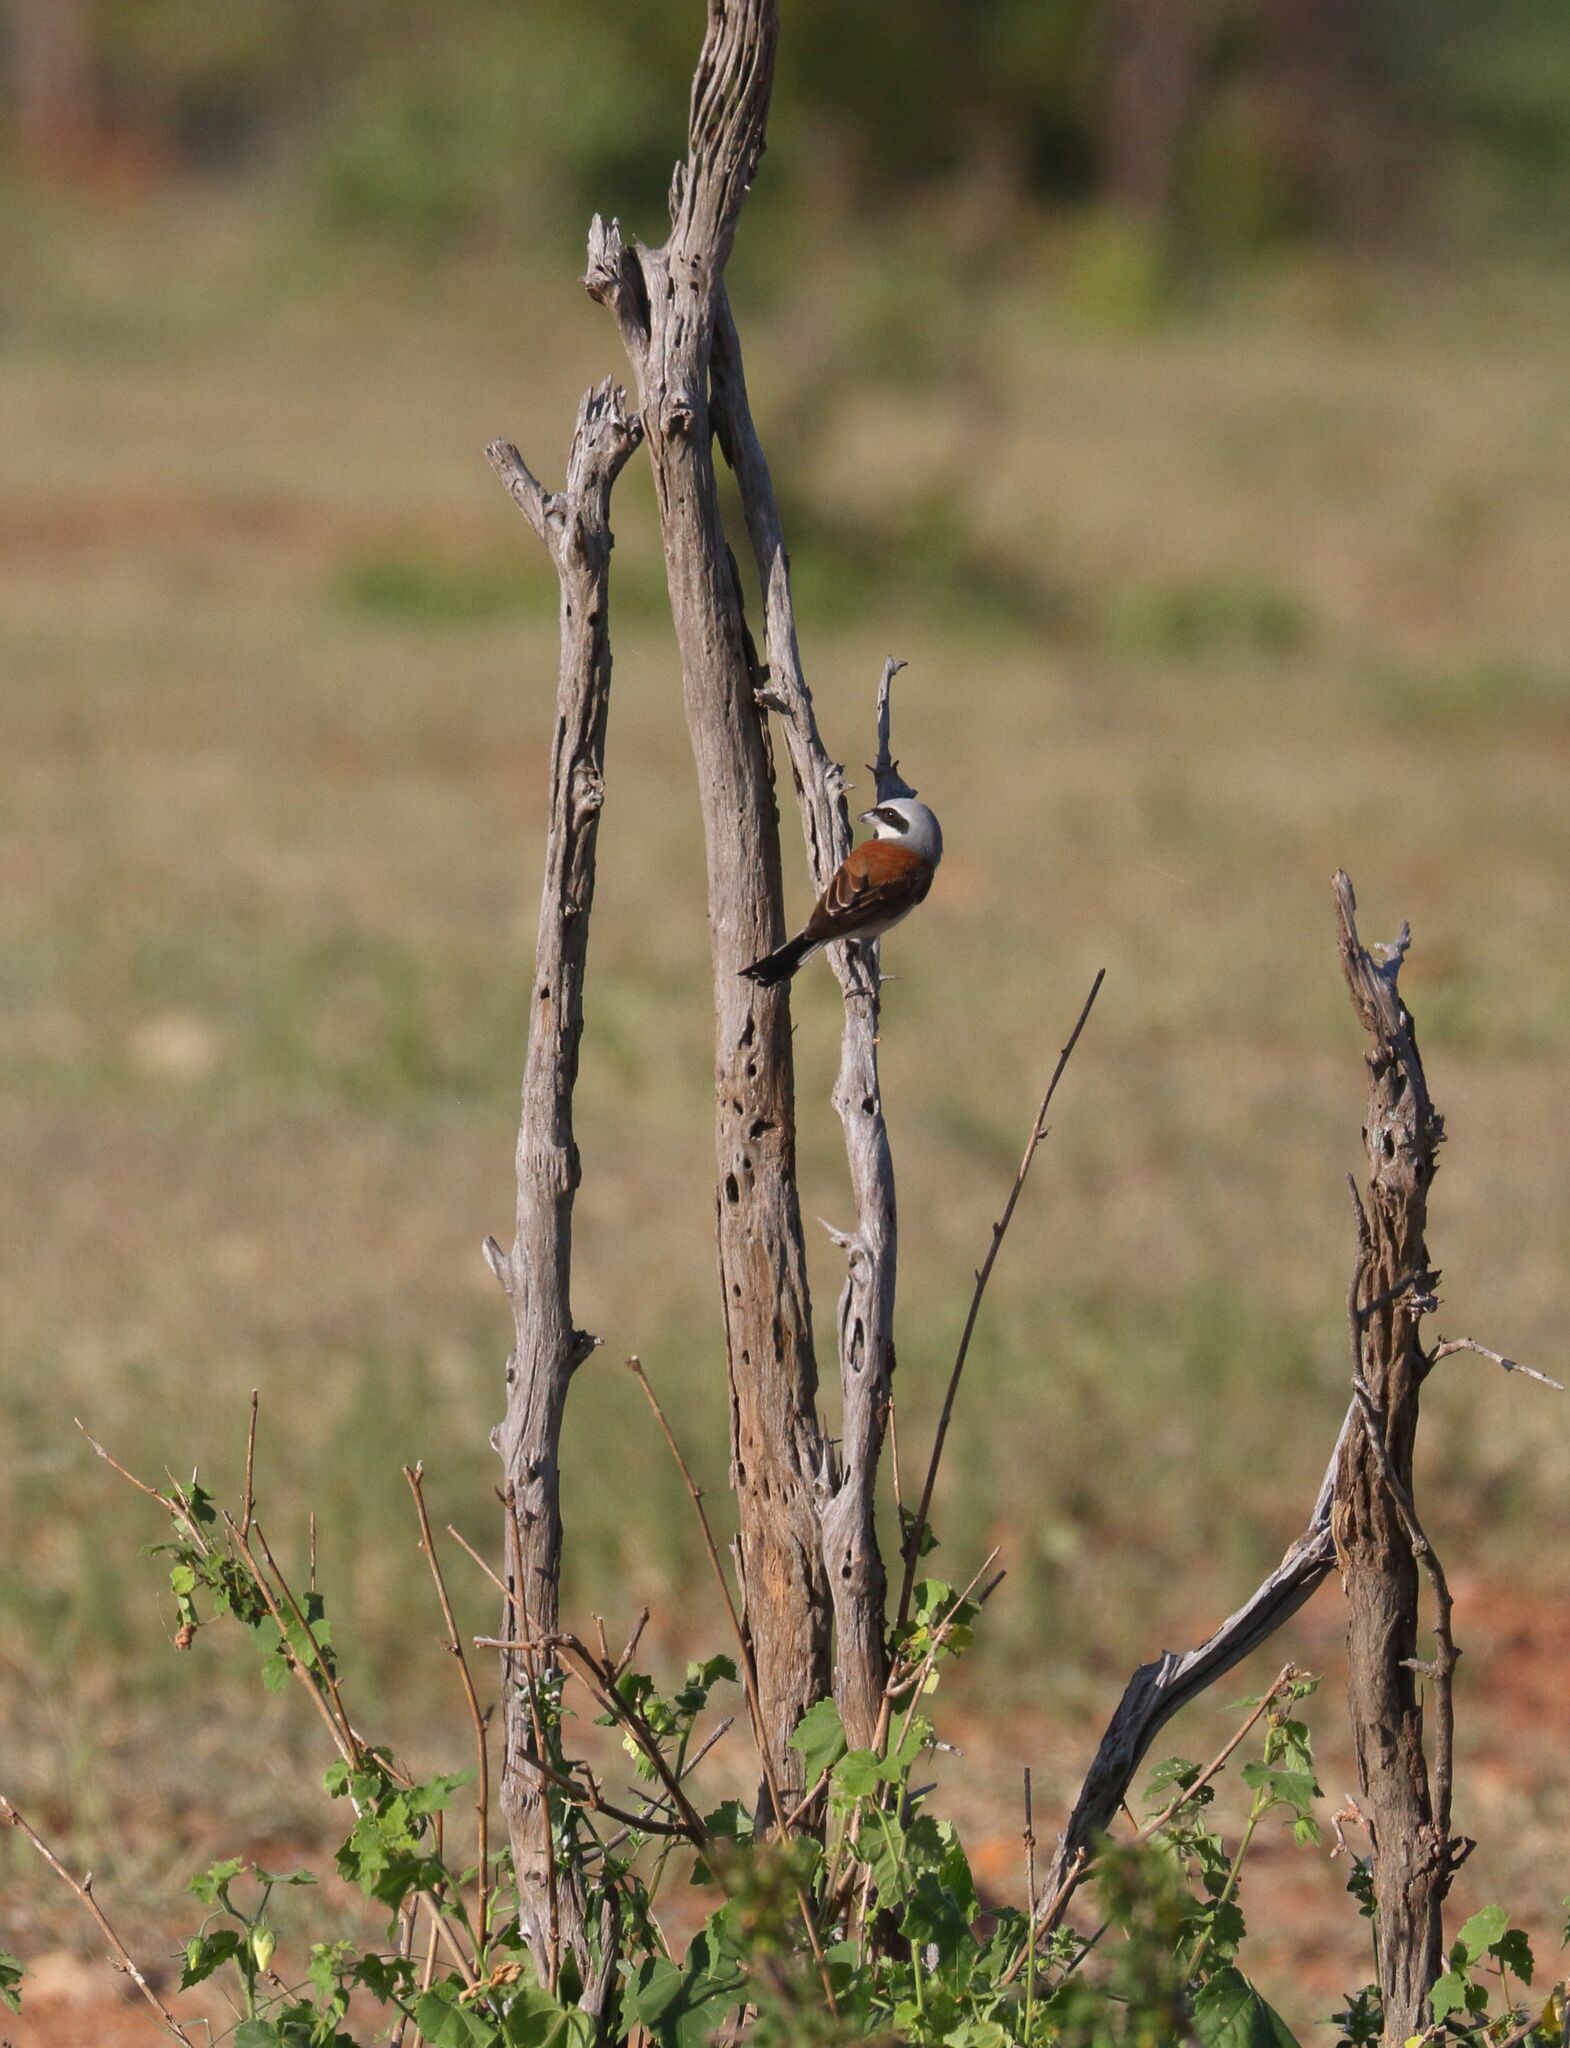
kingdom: Animalia
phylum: Chordata
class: Aves
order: Passeriformes
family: Laniidae
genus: Lanius
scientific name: Lanius collurio
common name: Red-backed shrike
